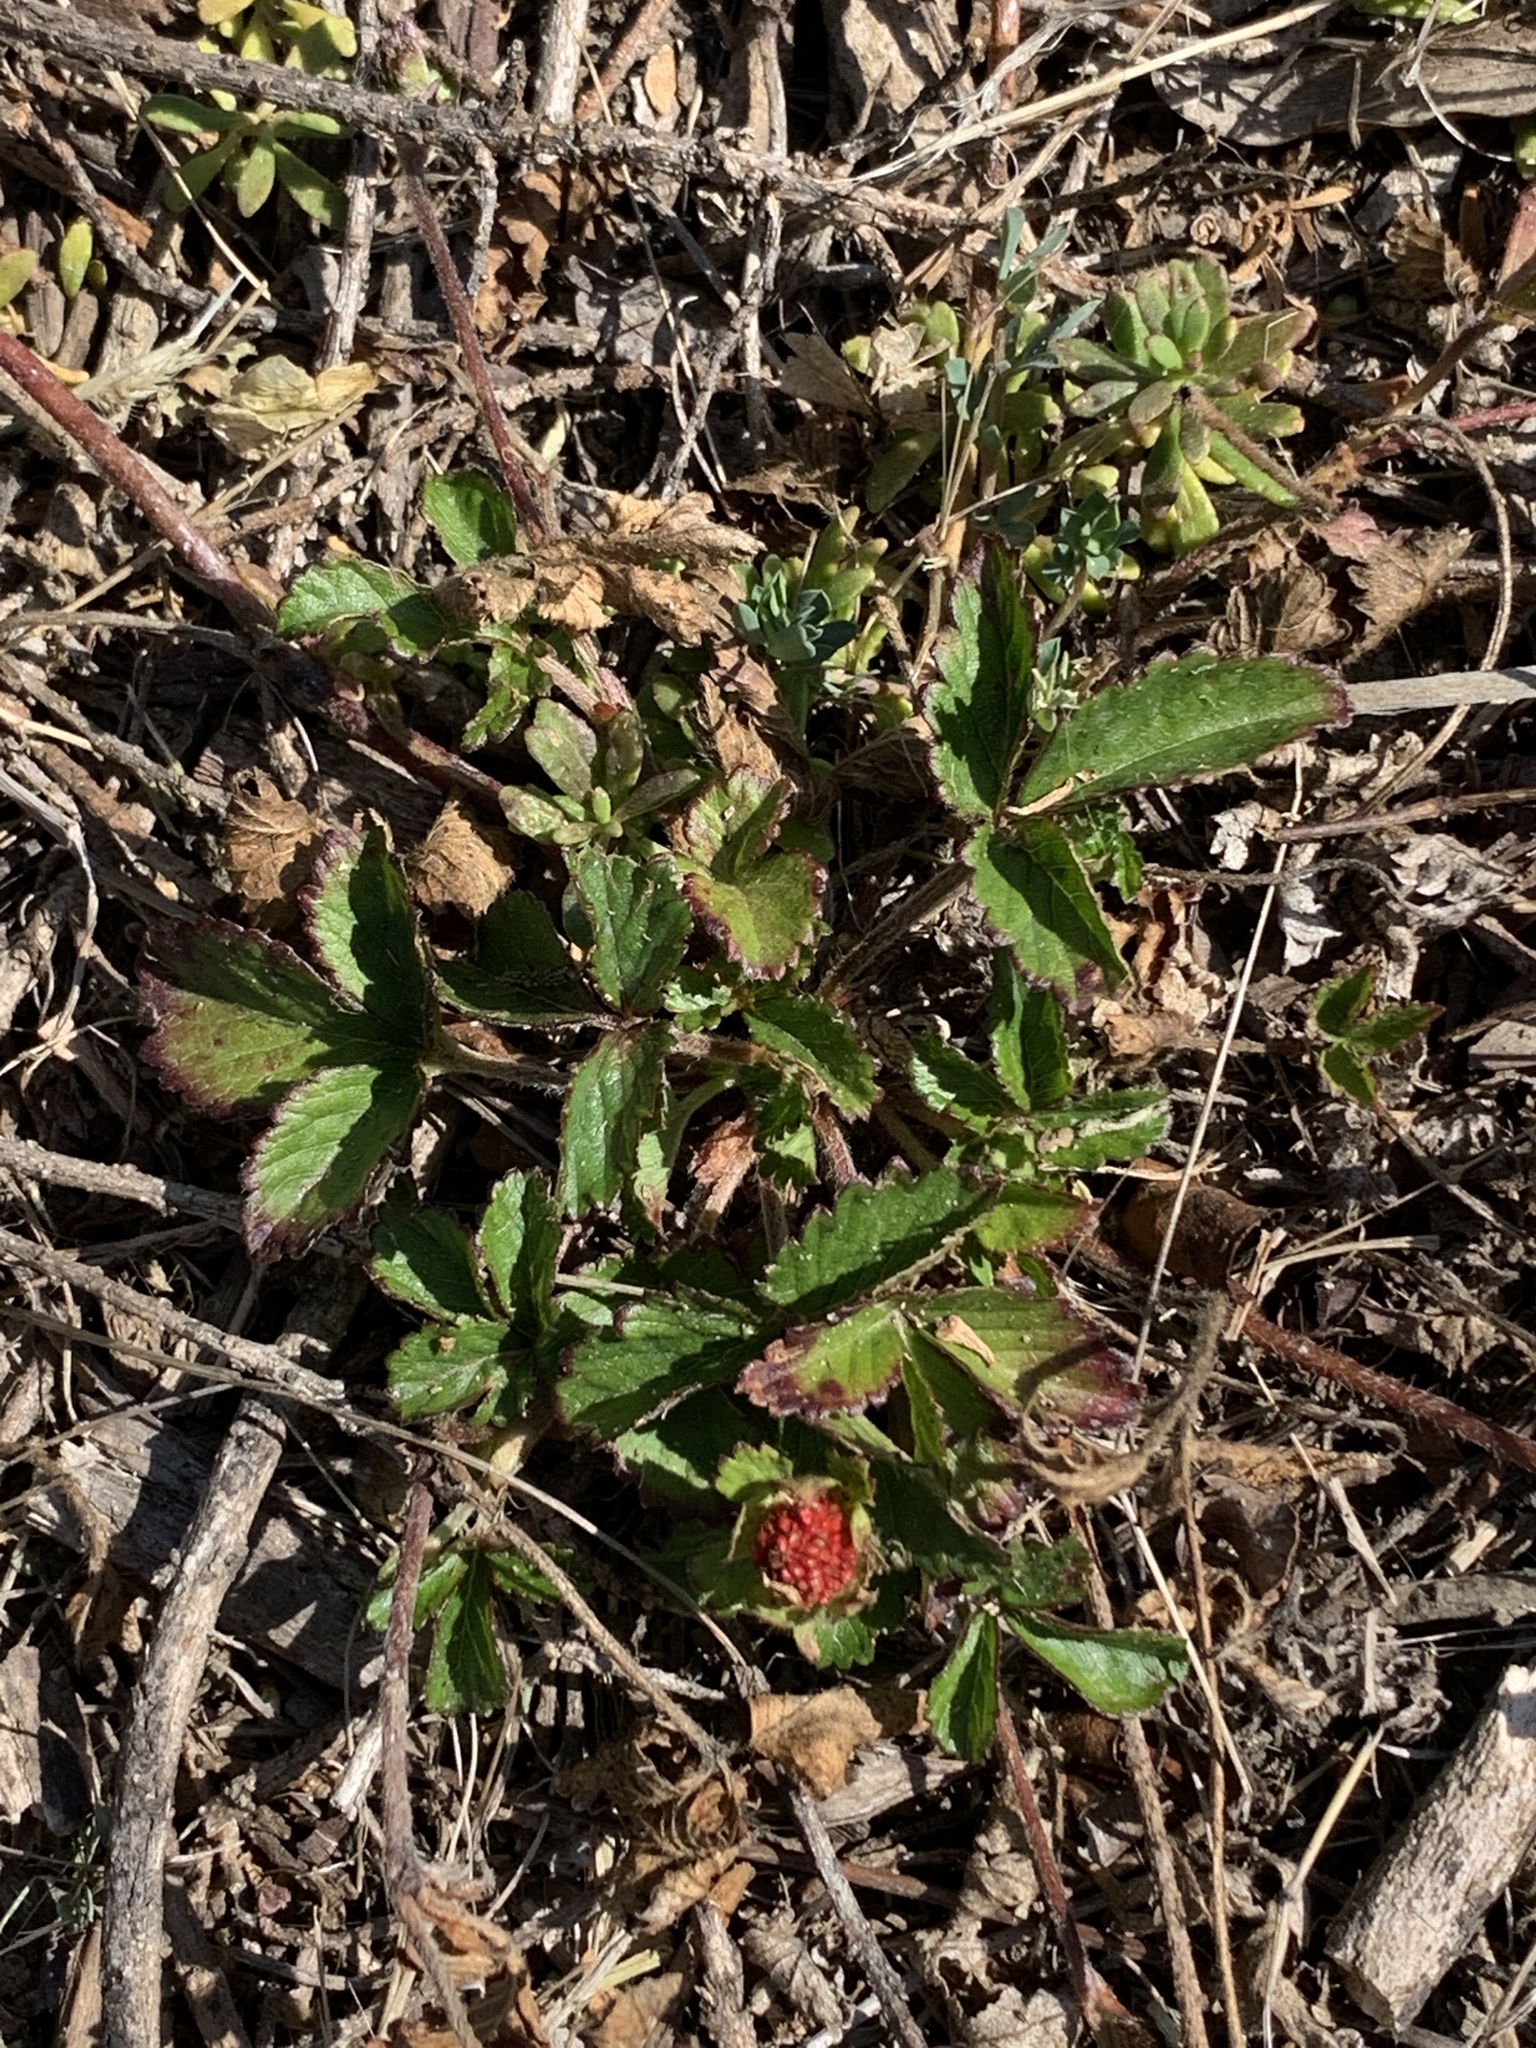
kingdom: Plantae
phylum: Tracheophyta
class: Magnoliopsida
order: Rosales
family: Rosaceae
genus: Potentilla
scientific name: Potentilla indica
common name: Yellow-flowered strawberry
